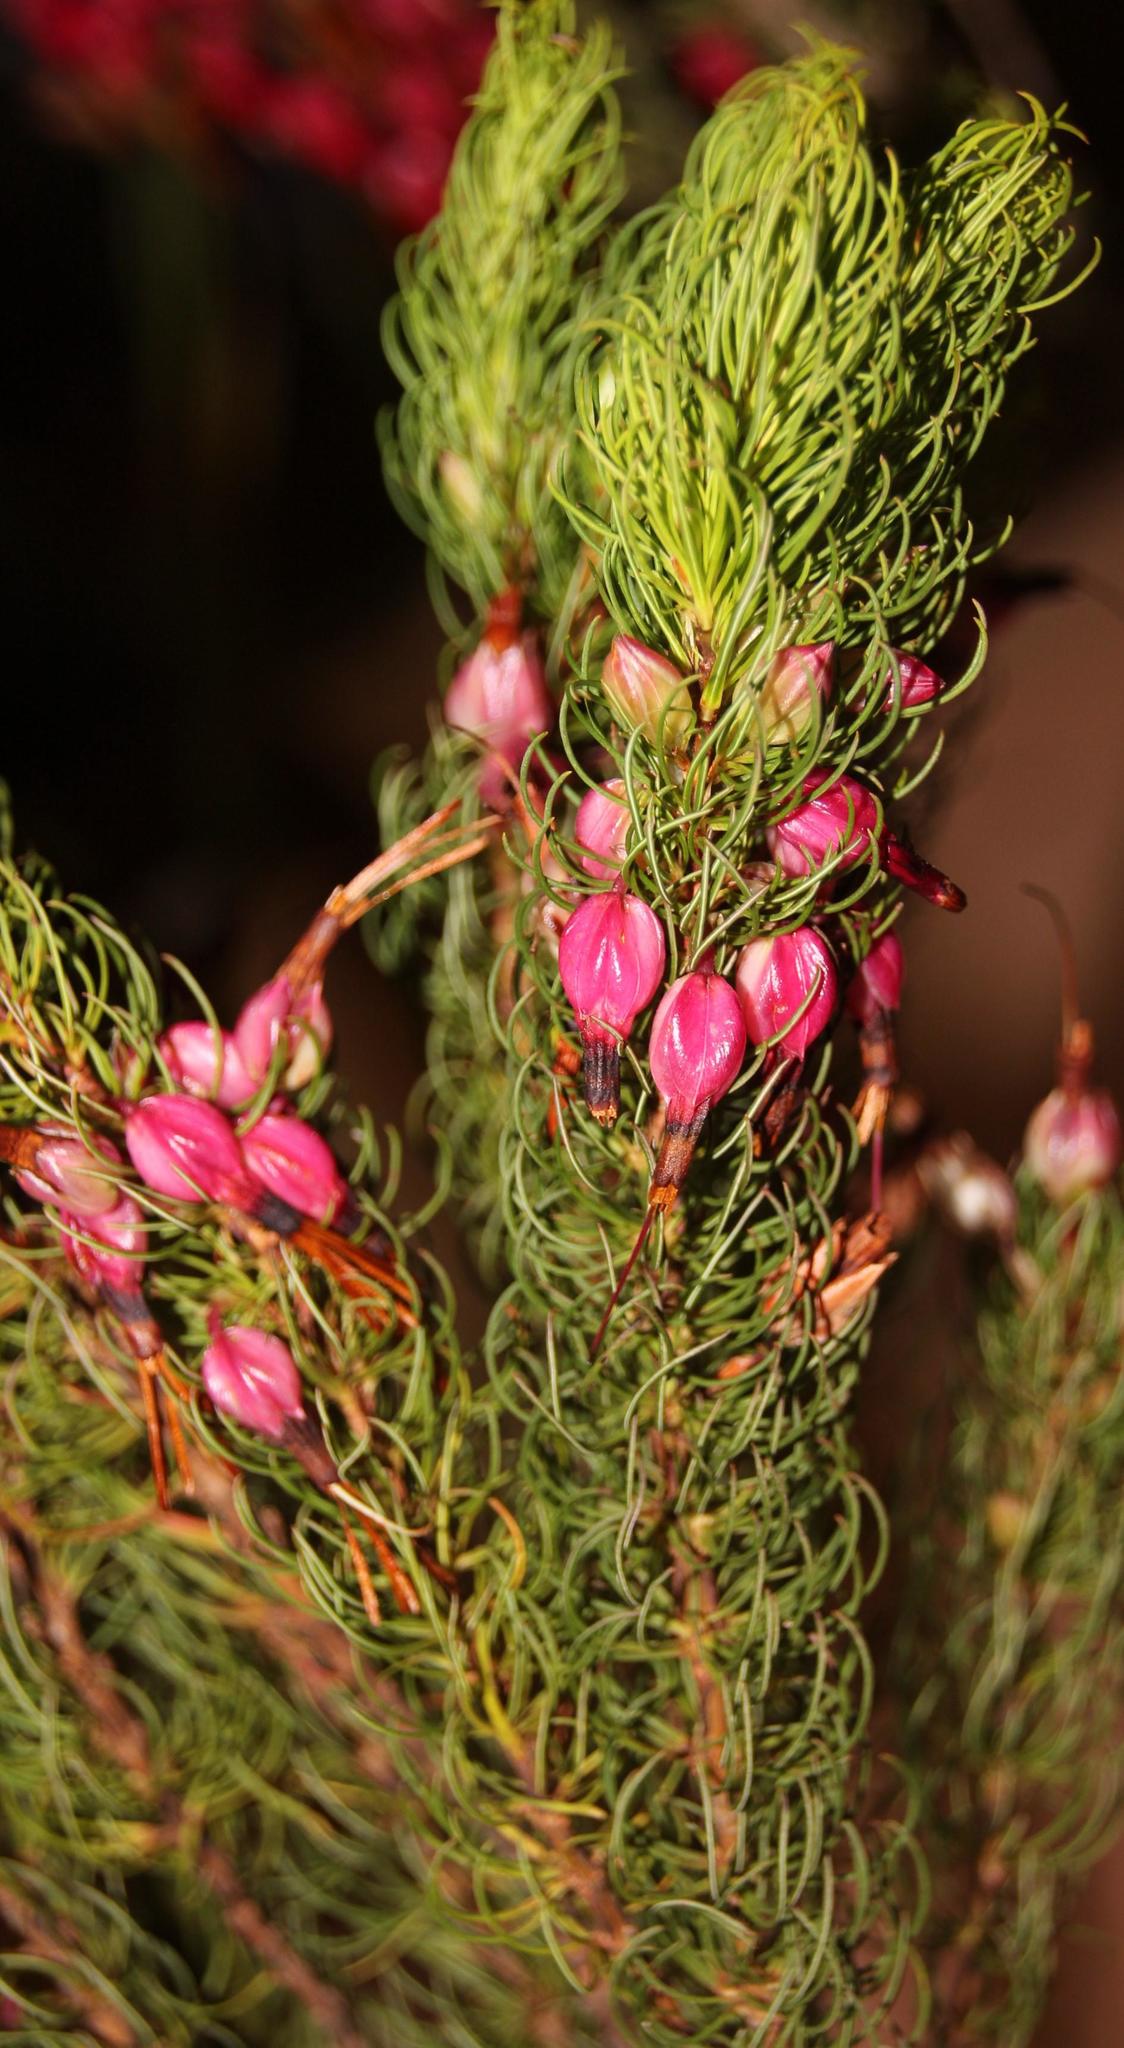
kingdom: Plantae
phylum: Tracheophyta
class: Magnoliopsida
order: Ericales
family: Ericaceae
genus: Erica
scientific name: Erica plukenetii
